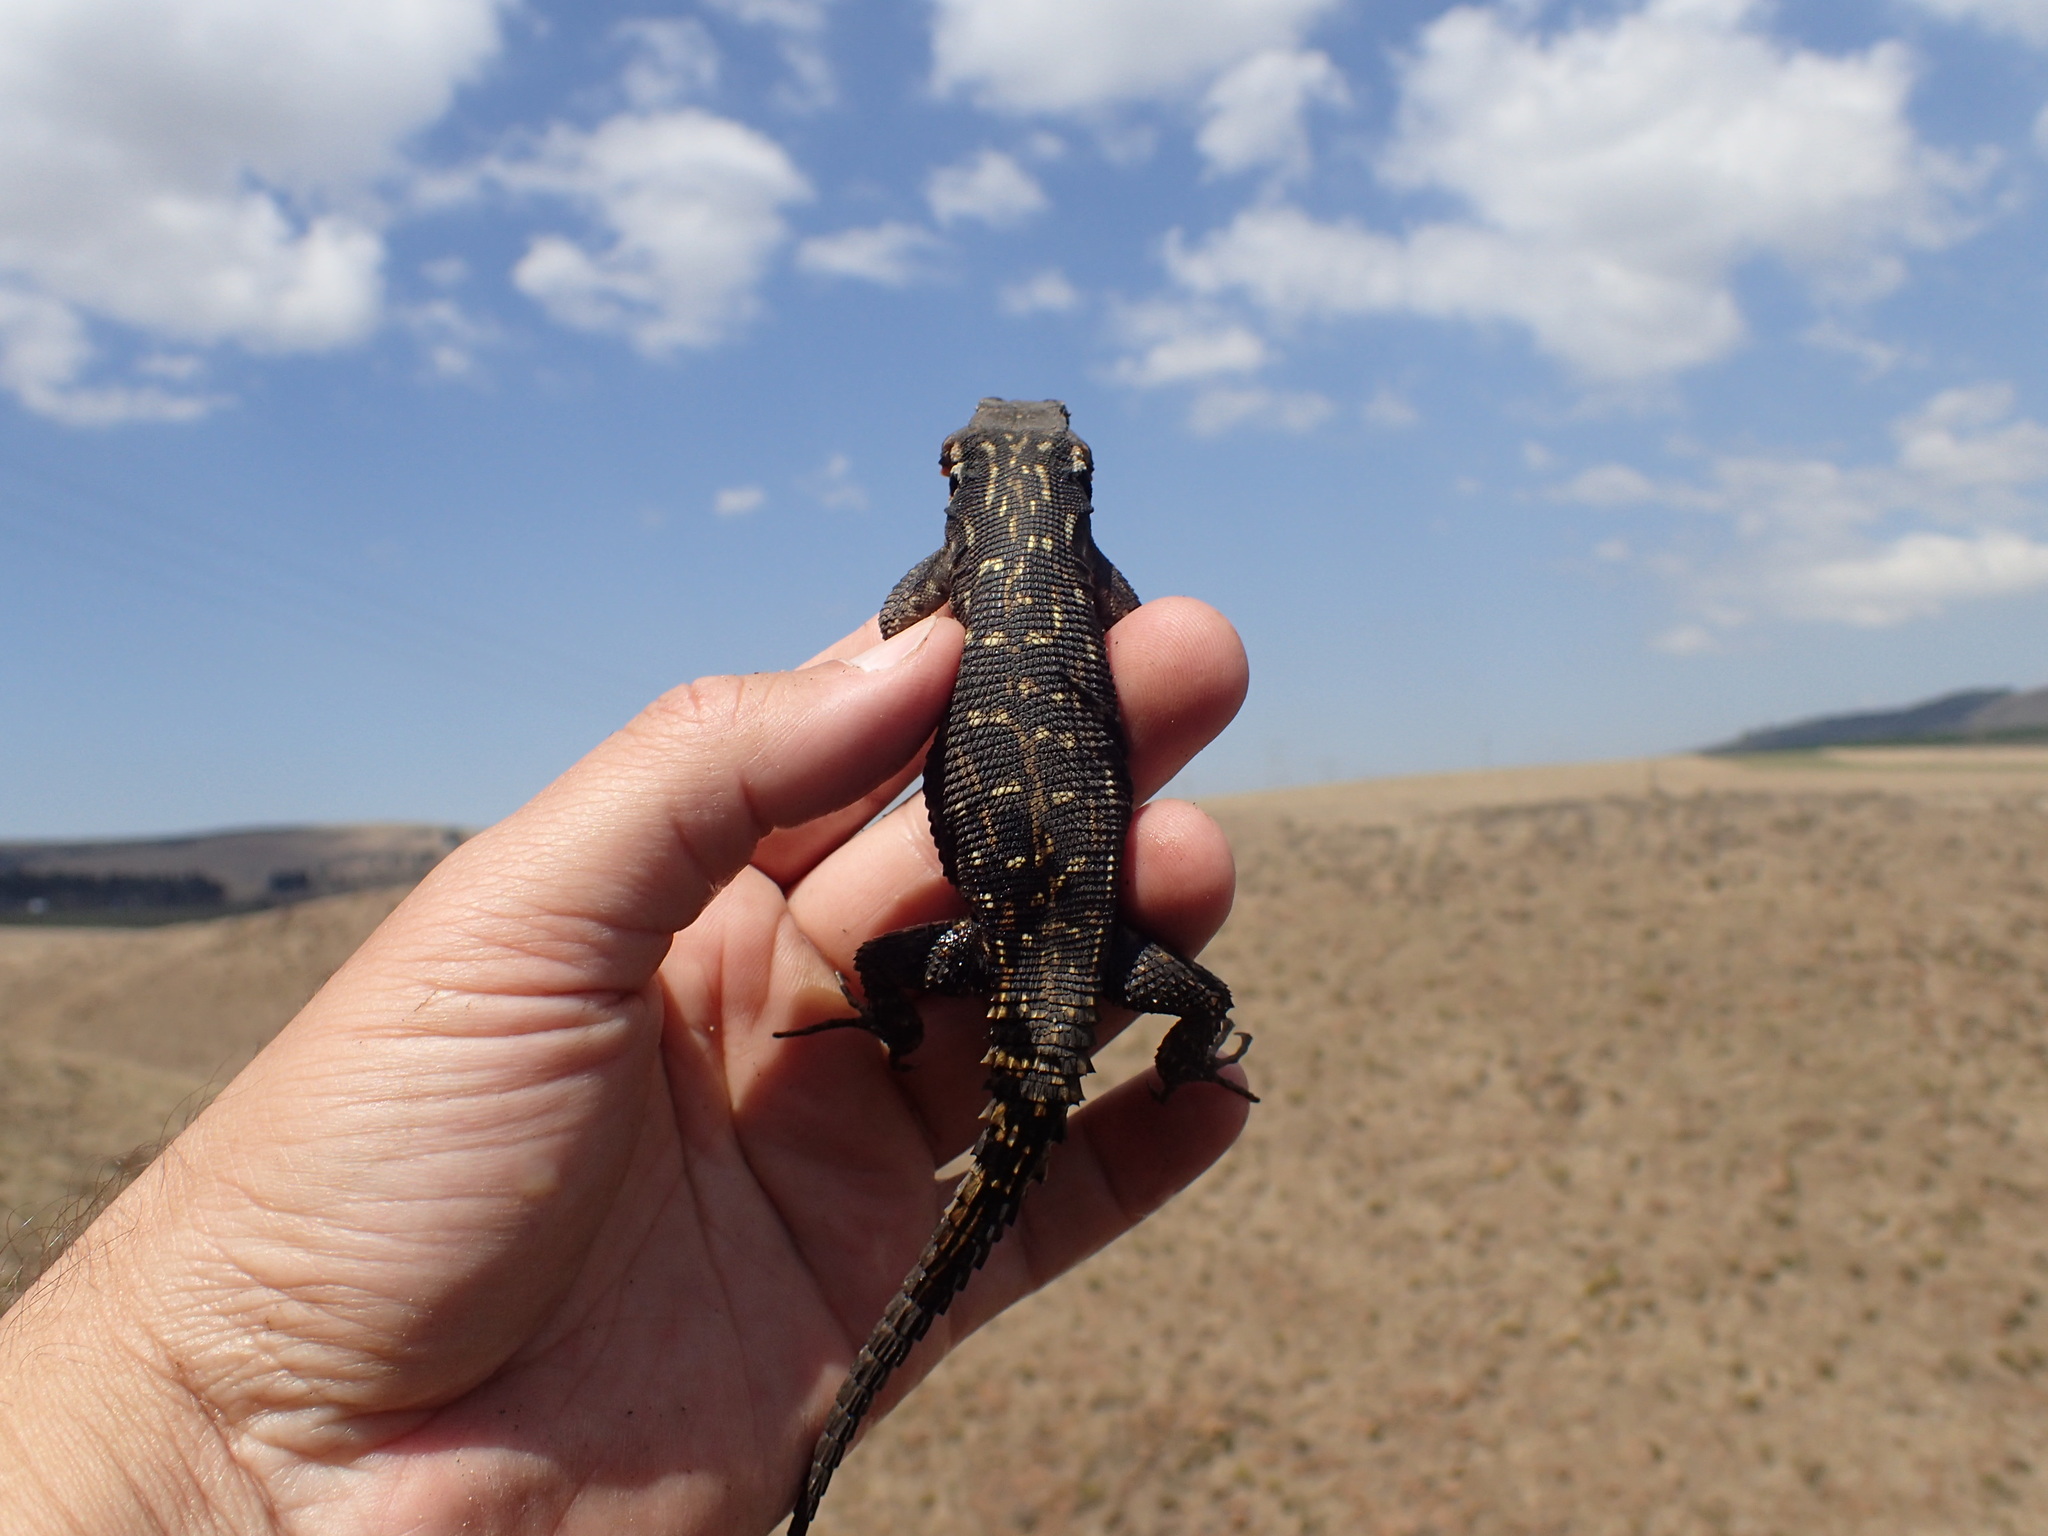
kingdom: Animalia
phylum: Chordata
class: Squamata
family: Cordylidae
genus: Pseudocordylus
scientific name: Pseudocordylus subviridis
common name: Drakensberg crag lizard
